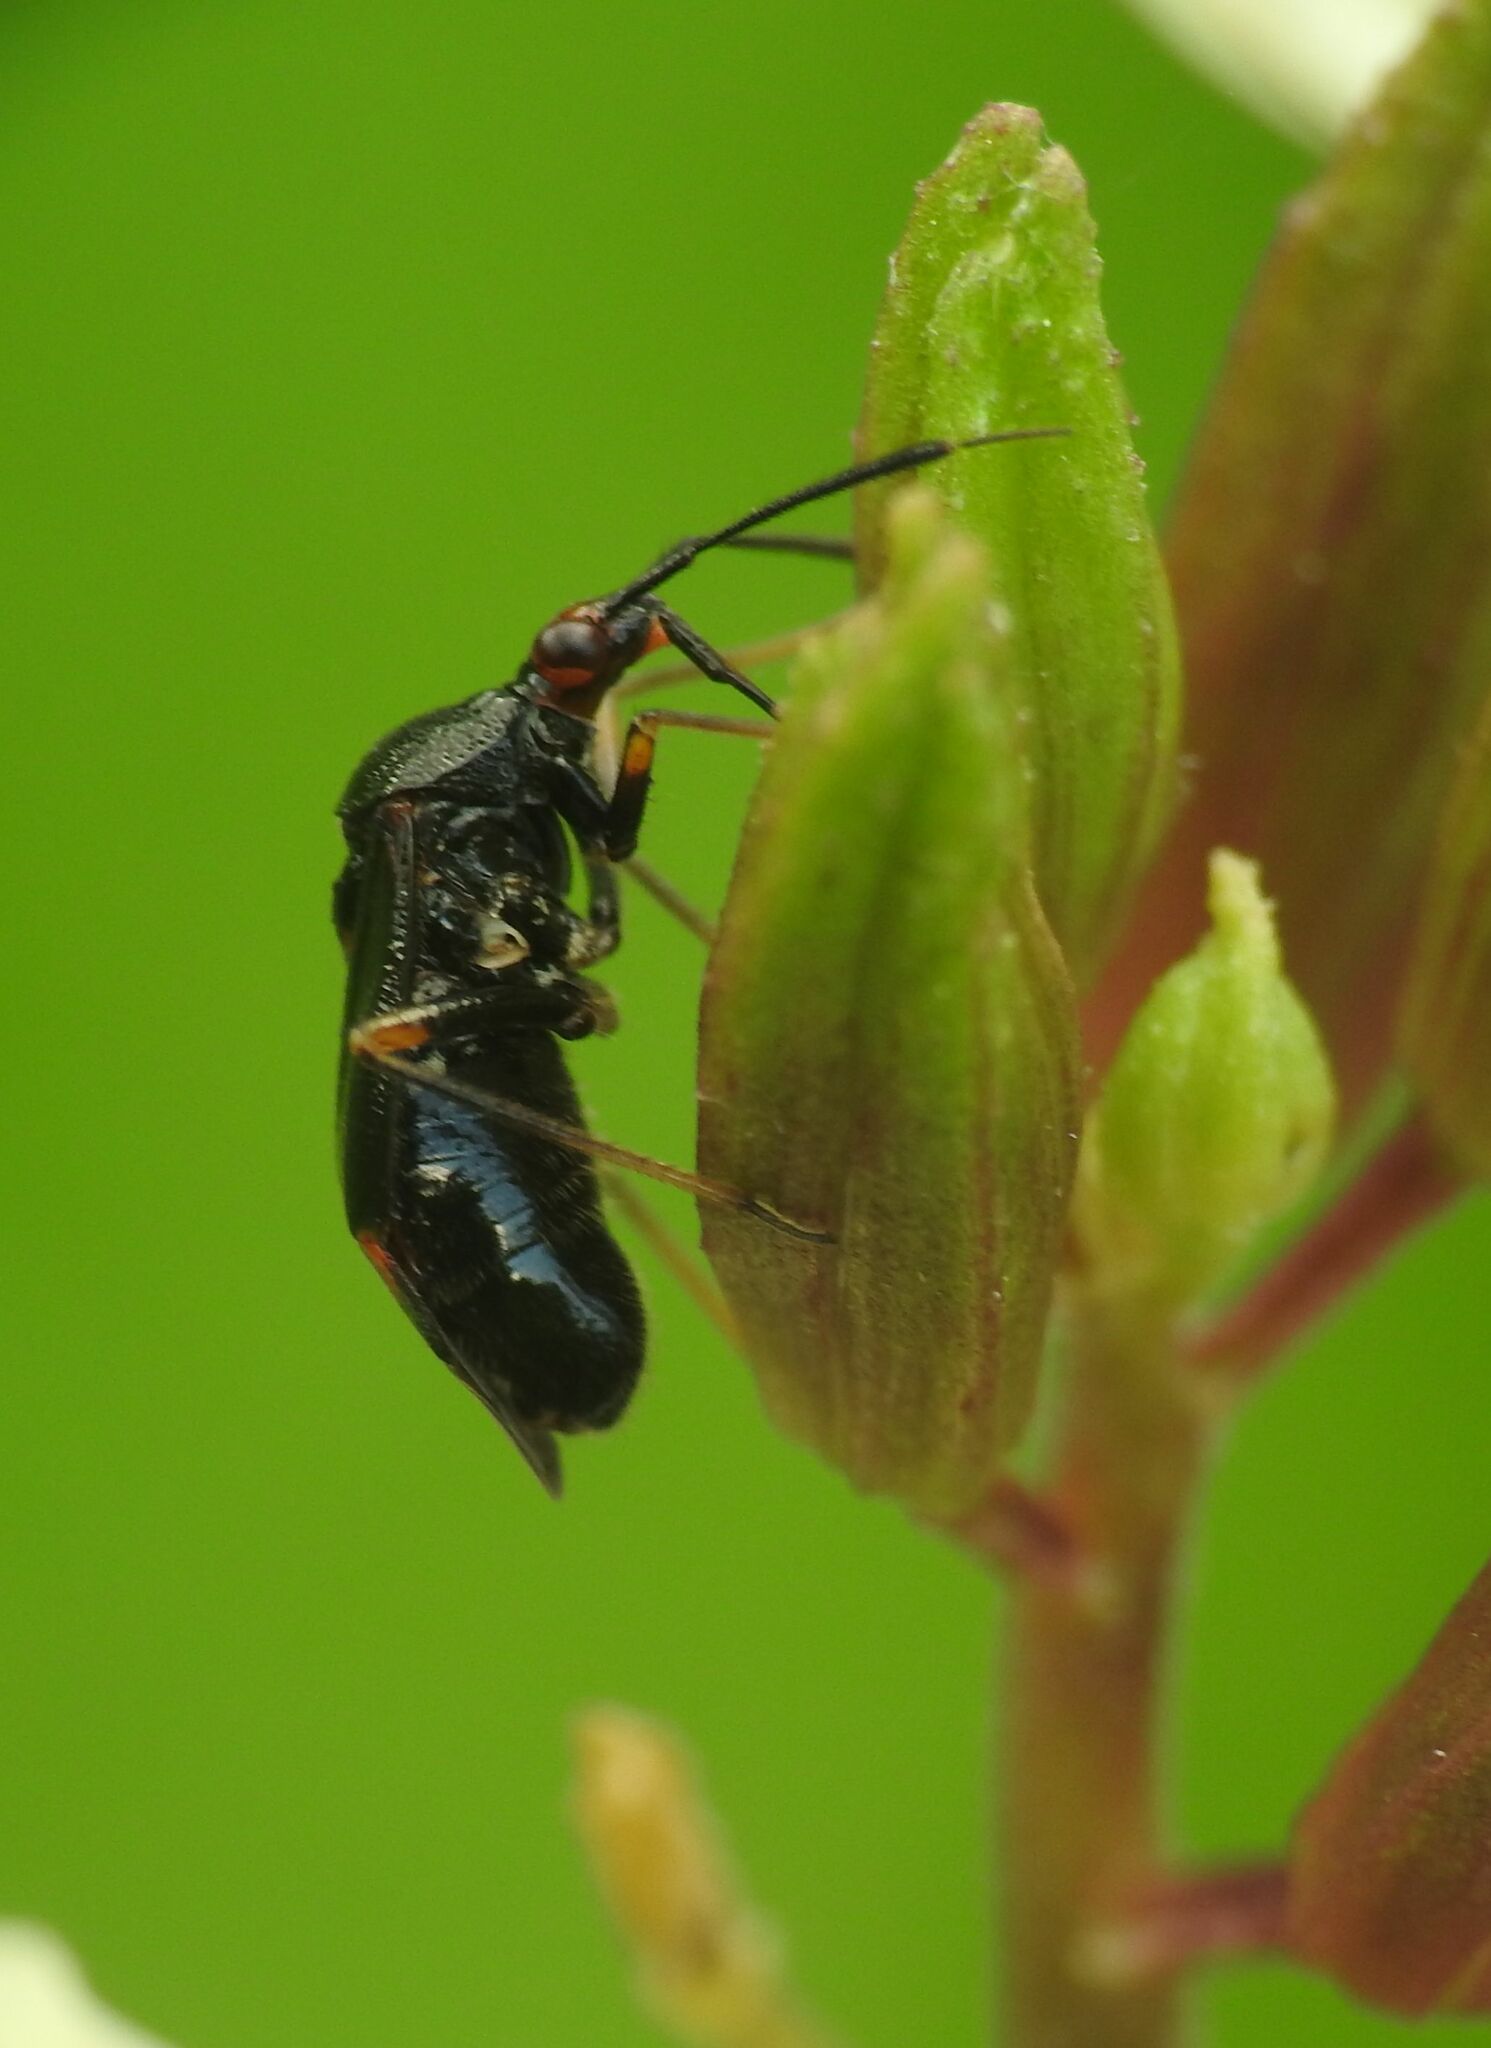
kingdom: Animalia
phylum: Arthropoda
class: Insecta
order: Hemiptera
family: Miridae
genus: Deraeocoris
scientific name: Deraeocoris ruber
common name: Plant bug
